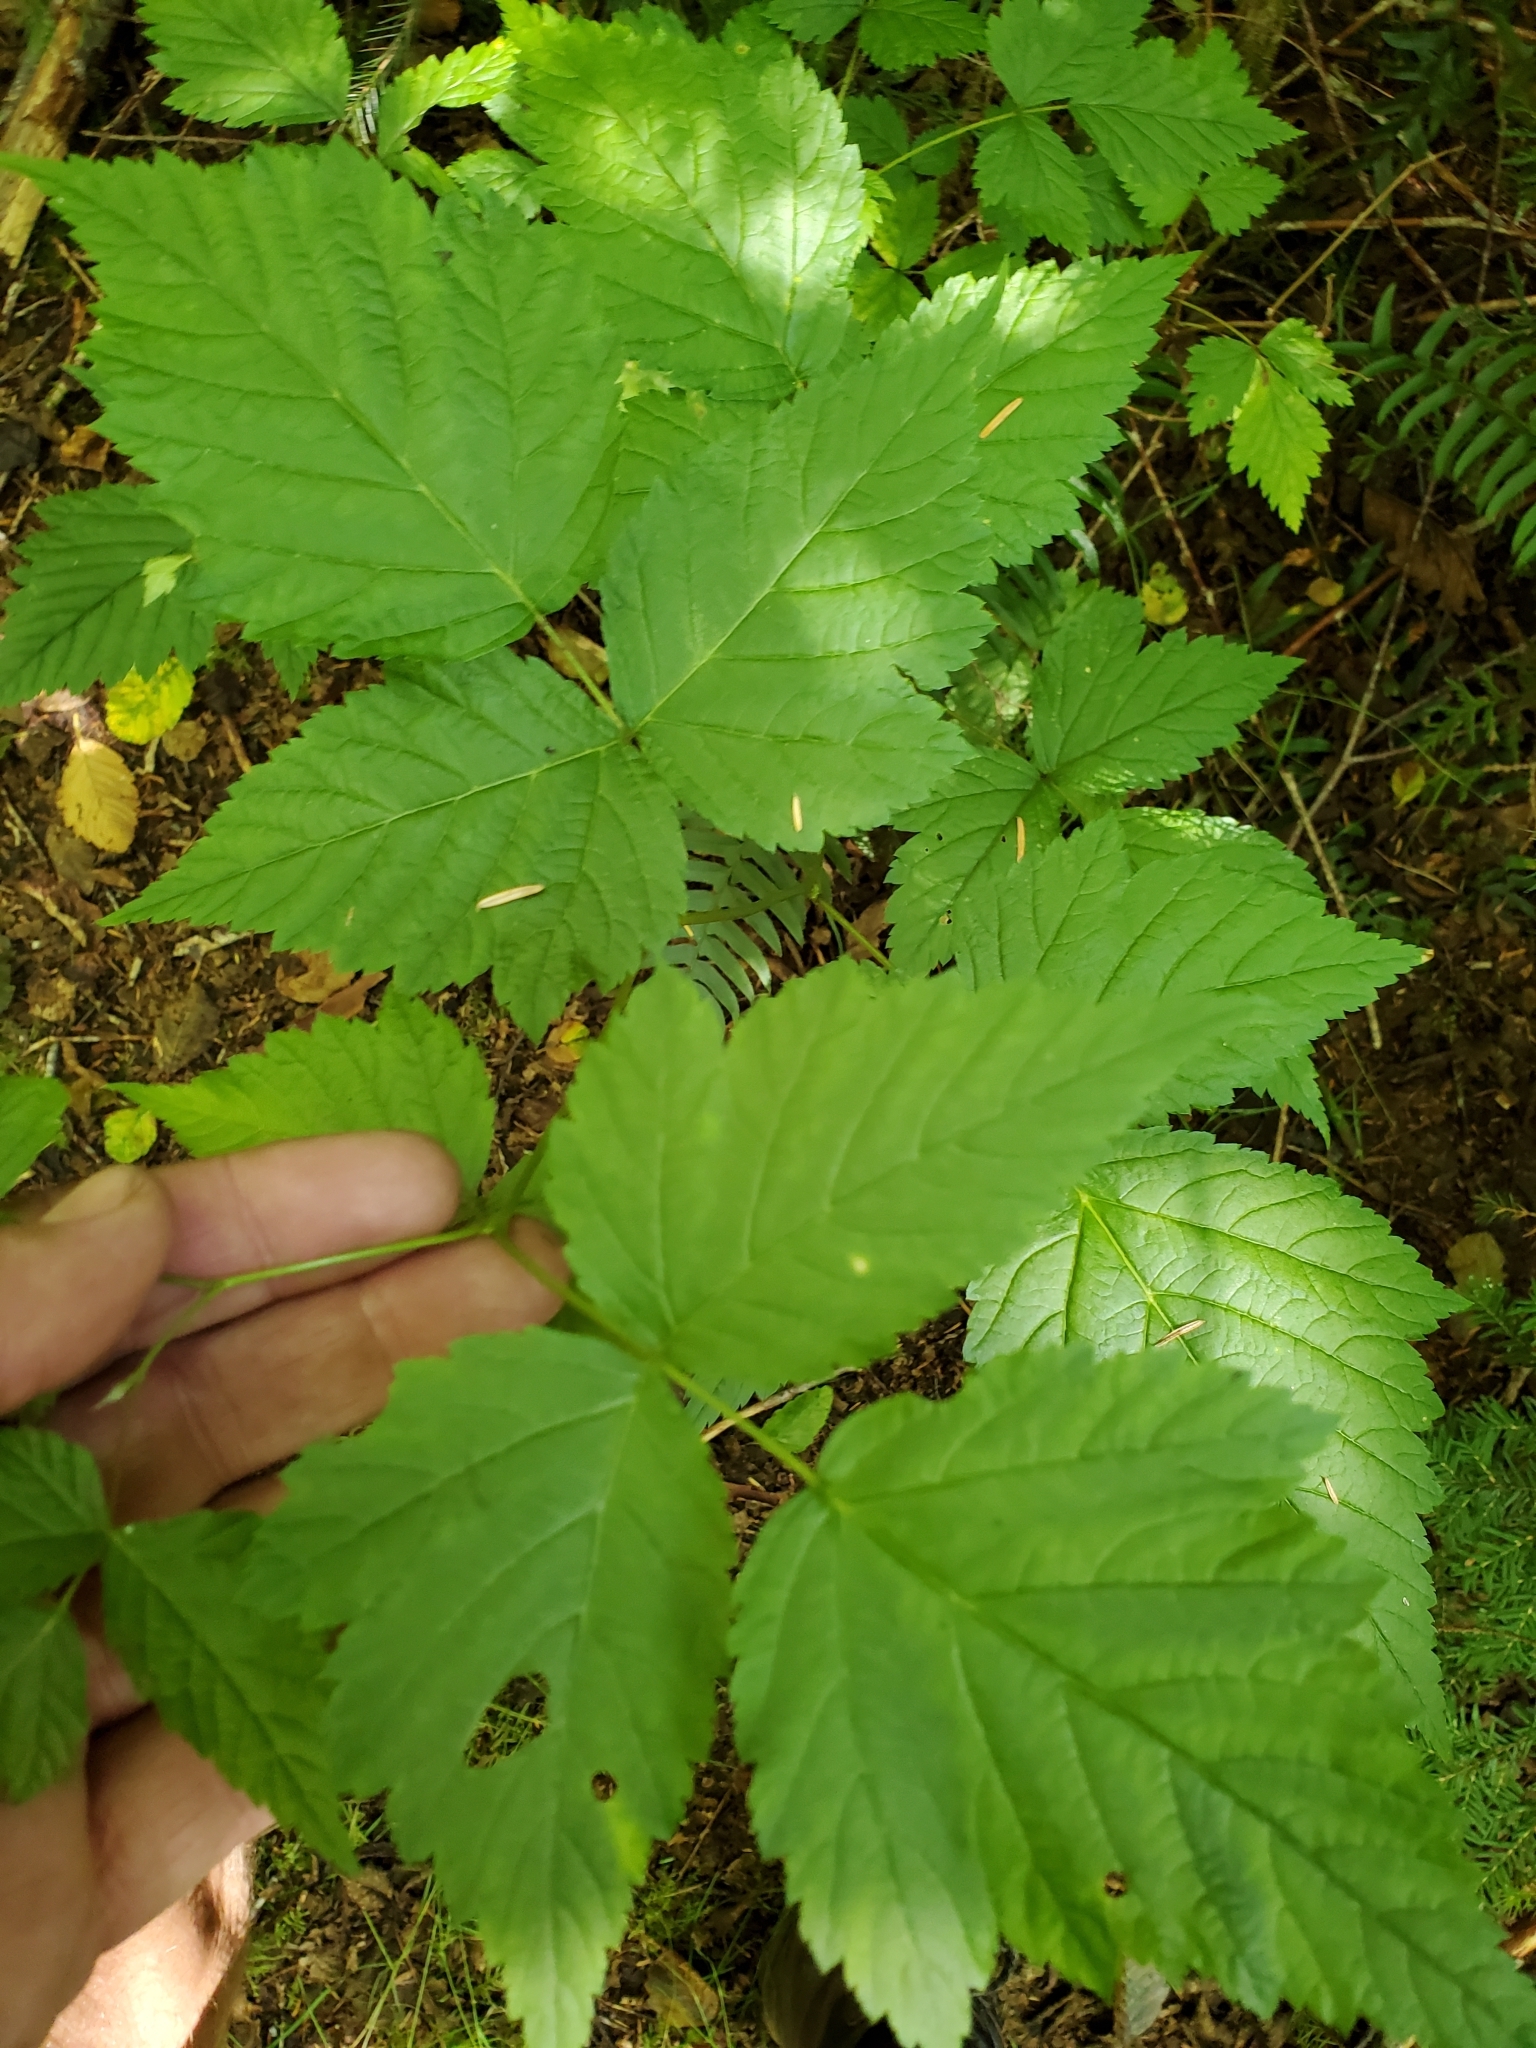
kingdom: Plantae
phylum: Tracheophyta
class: Magnoliopsida
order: Rosales
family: Rosaceae
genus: Rubus
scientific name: Rubus spectabilis
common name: Salmonberry
